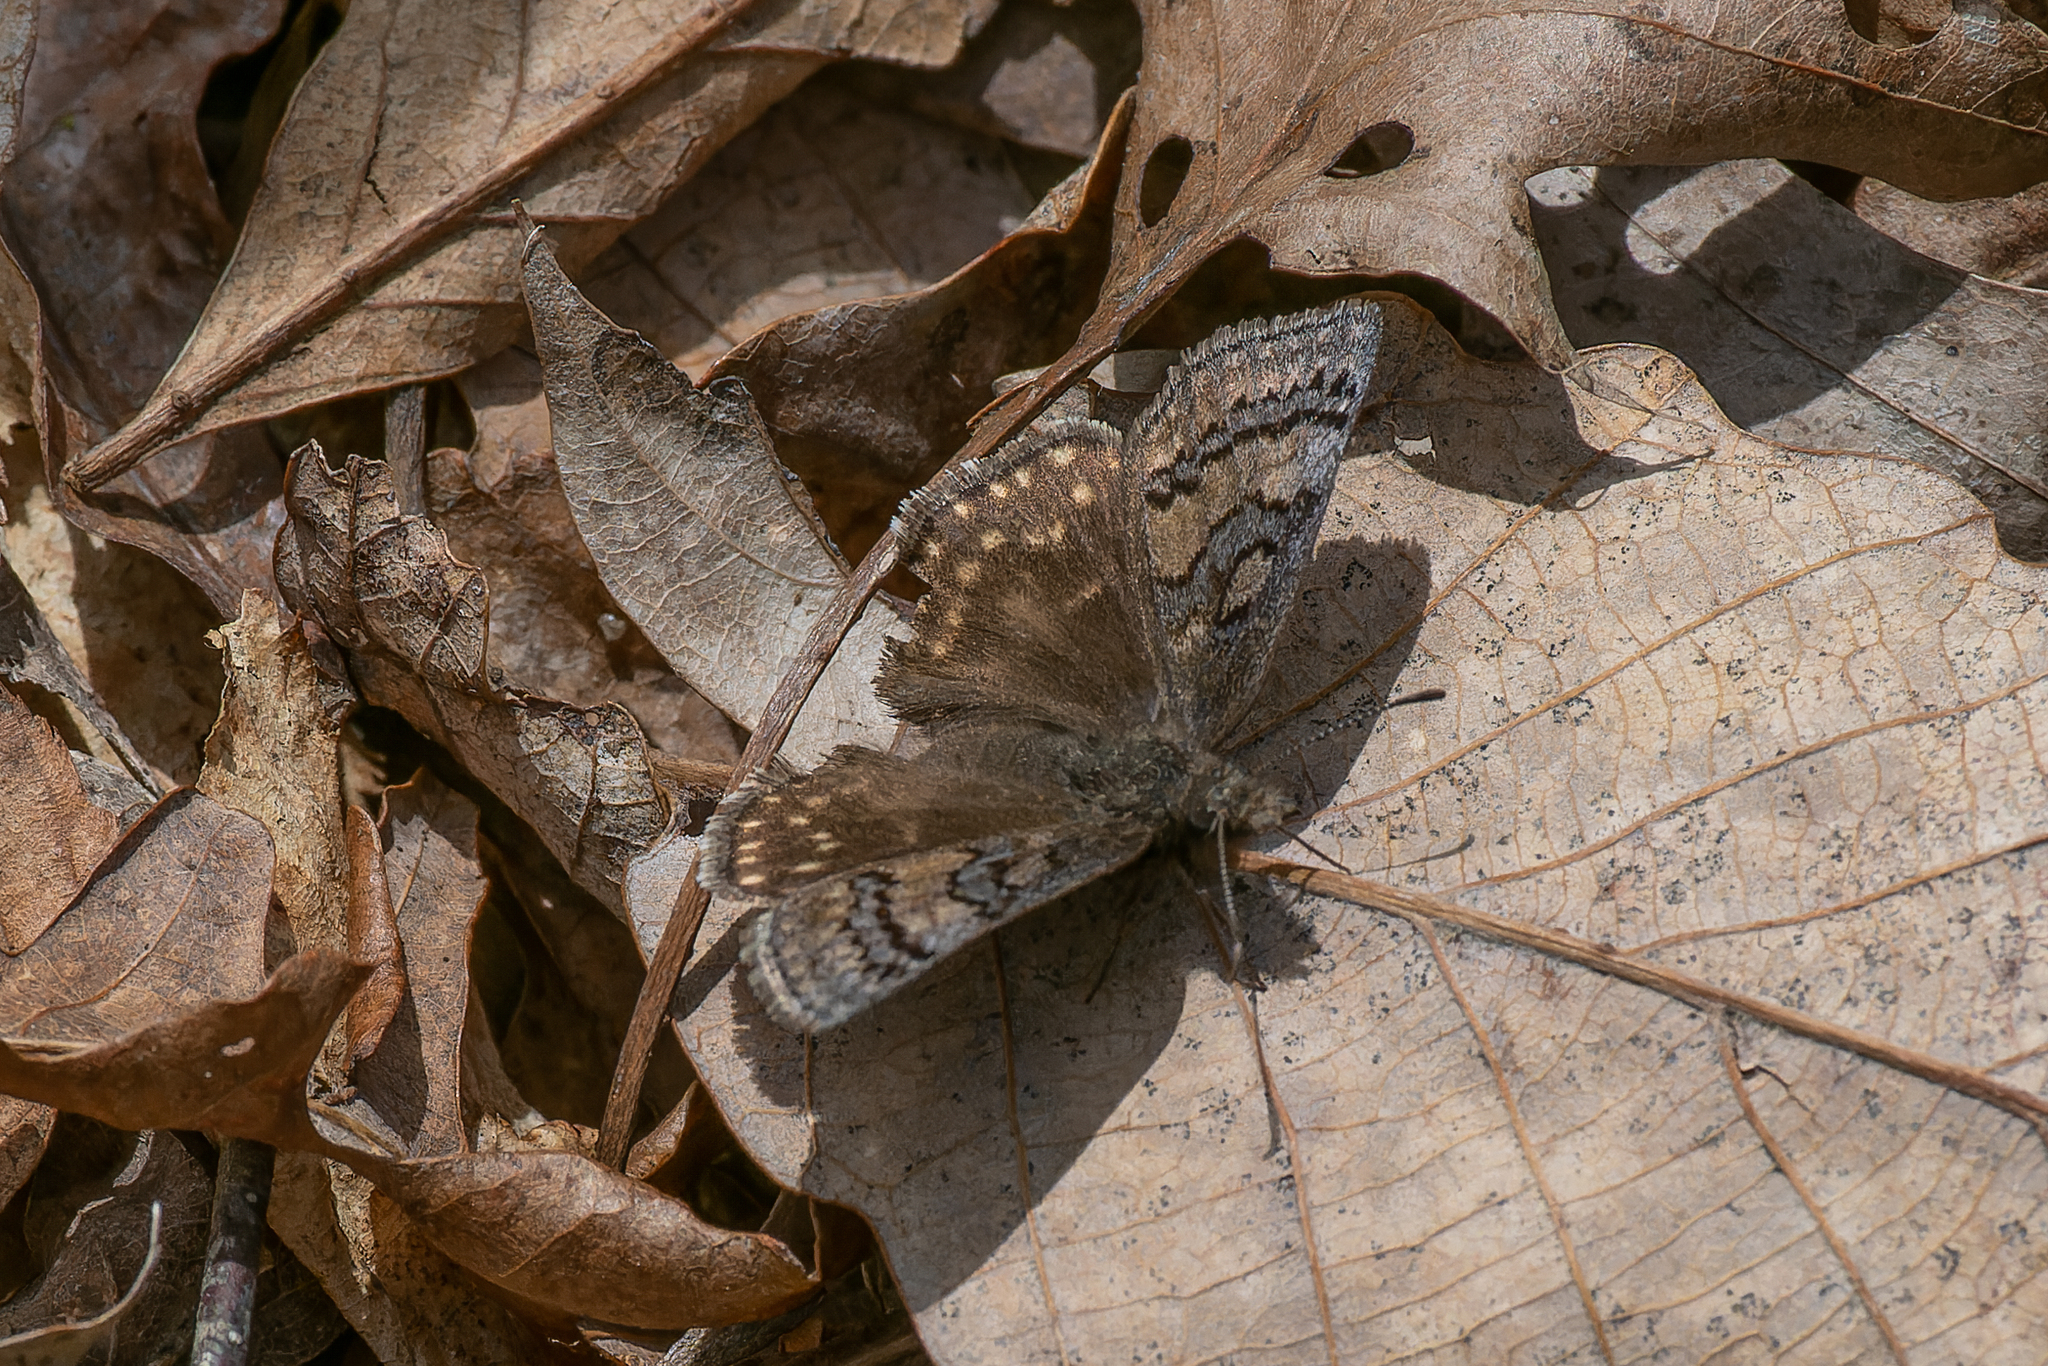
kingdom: Animalia
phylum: Arthropoda
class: Insecta
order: Lepidoptera
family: Hesperiidae
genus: Erynnis
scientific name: Erynnis brizo
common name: Sleepy duskywing
